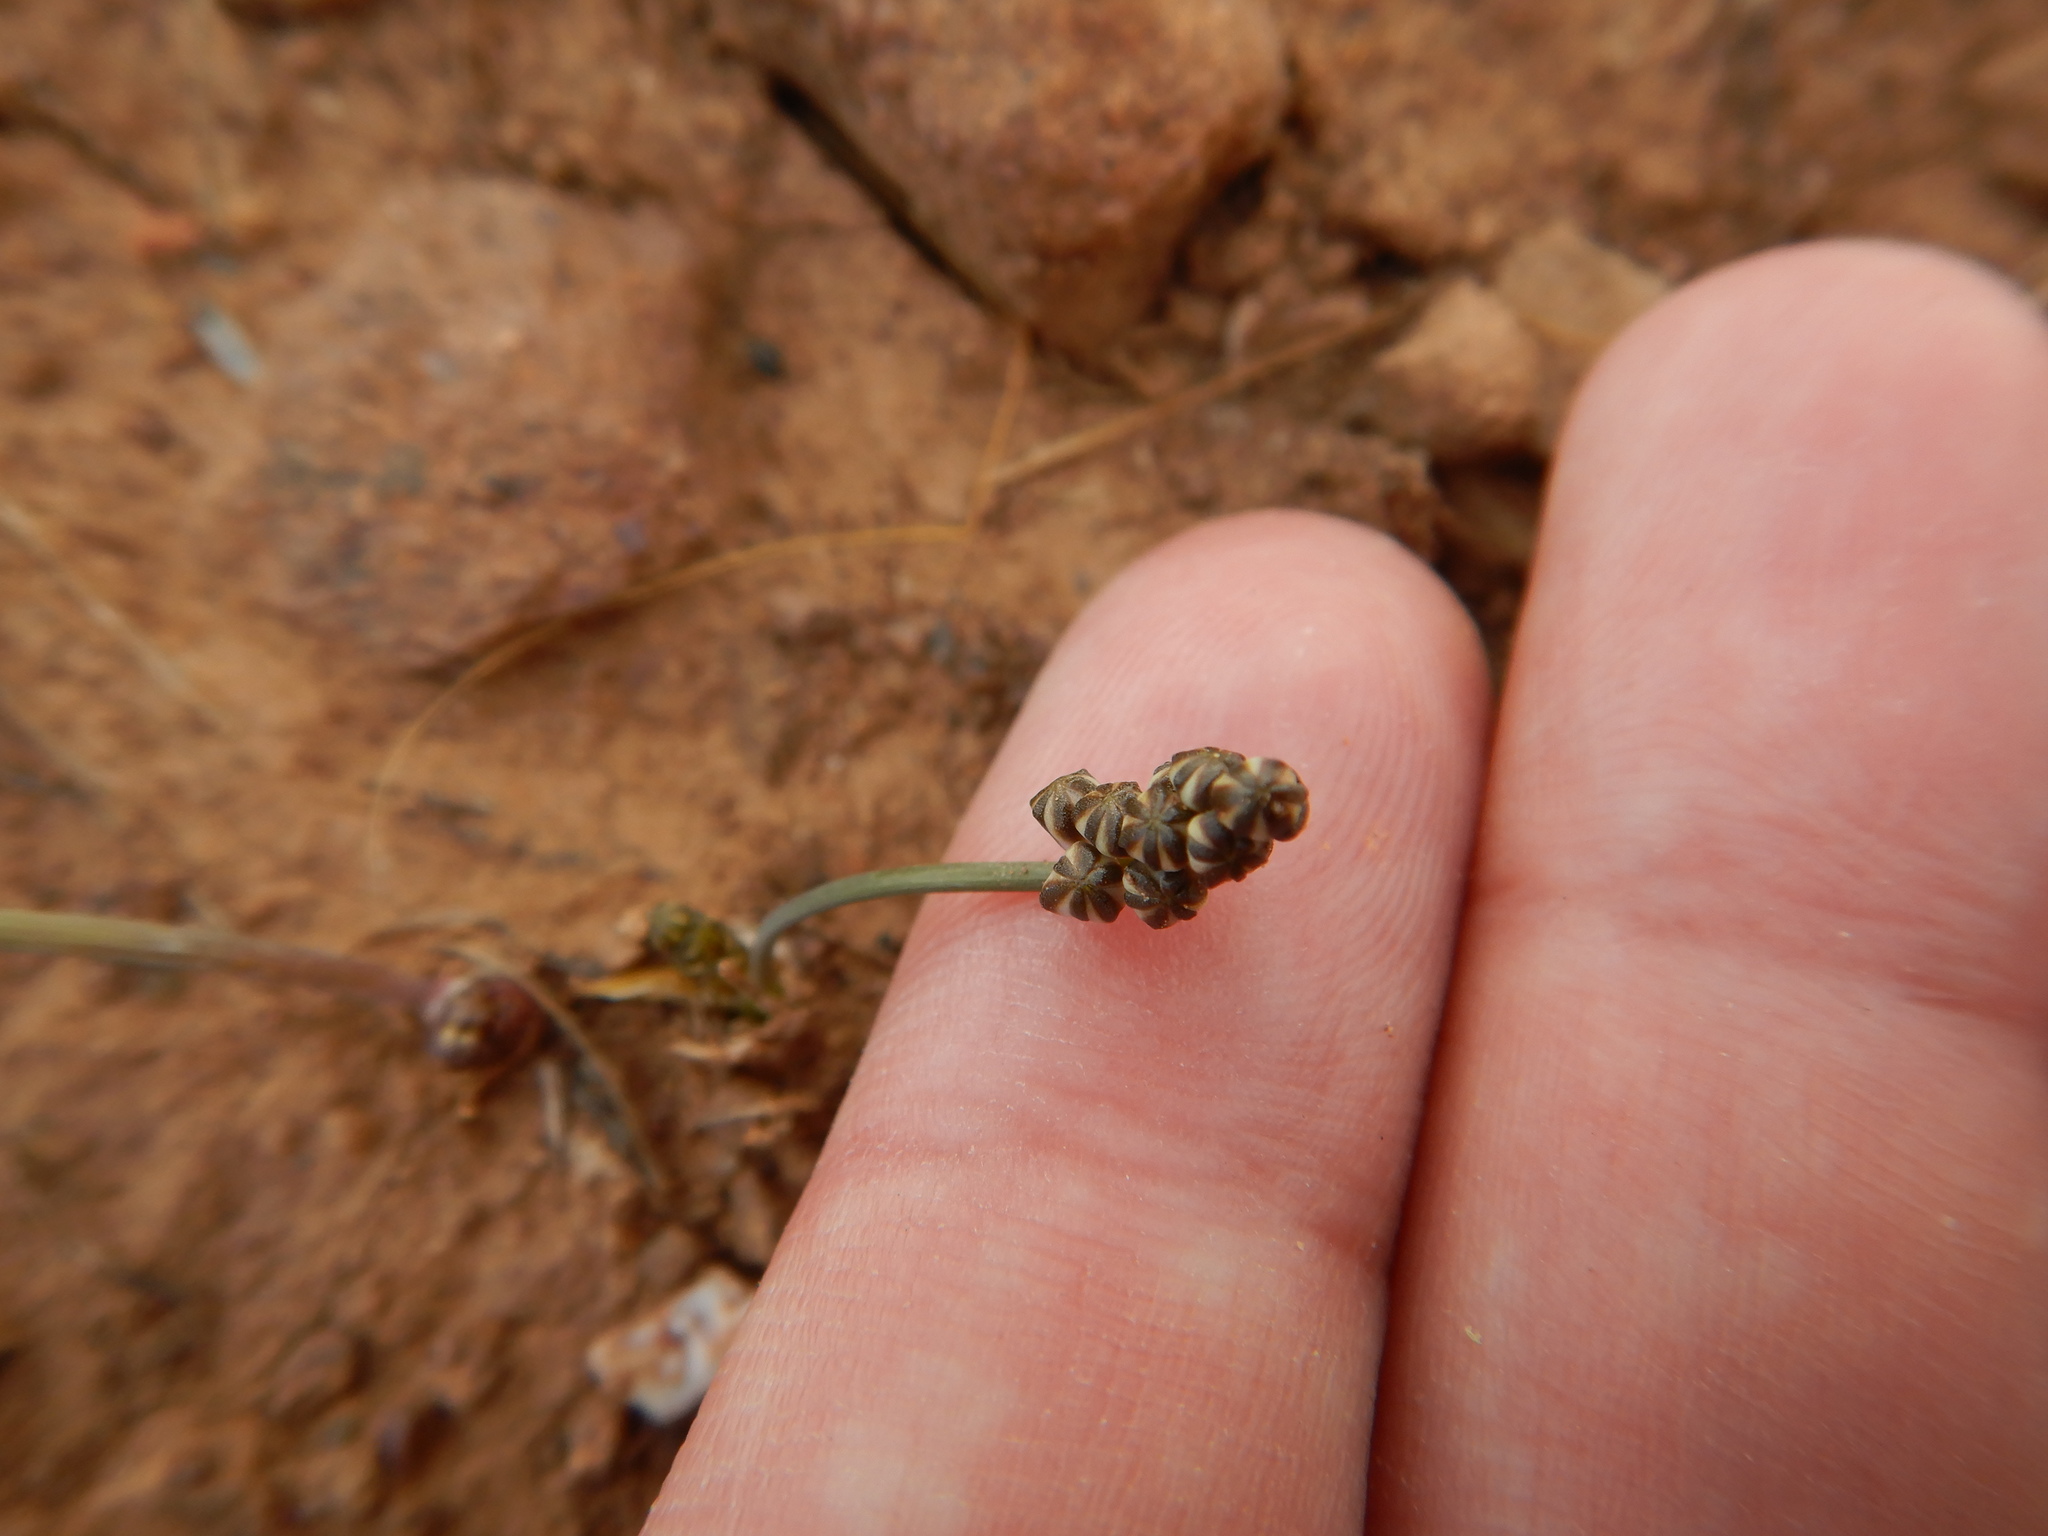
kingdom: Plantae
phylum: Tracheophyta
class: Liliopsida
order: Asparagales
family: Asparagaceae
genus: Prospero
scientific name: Prospero autumnale
